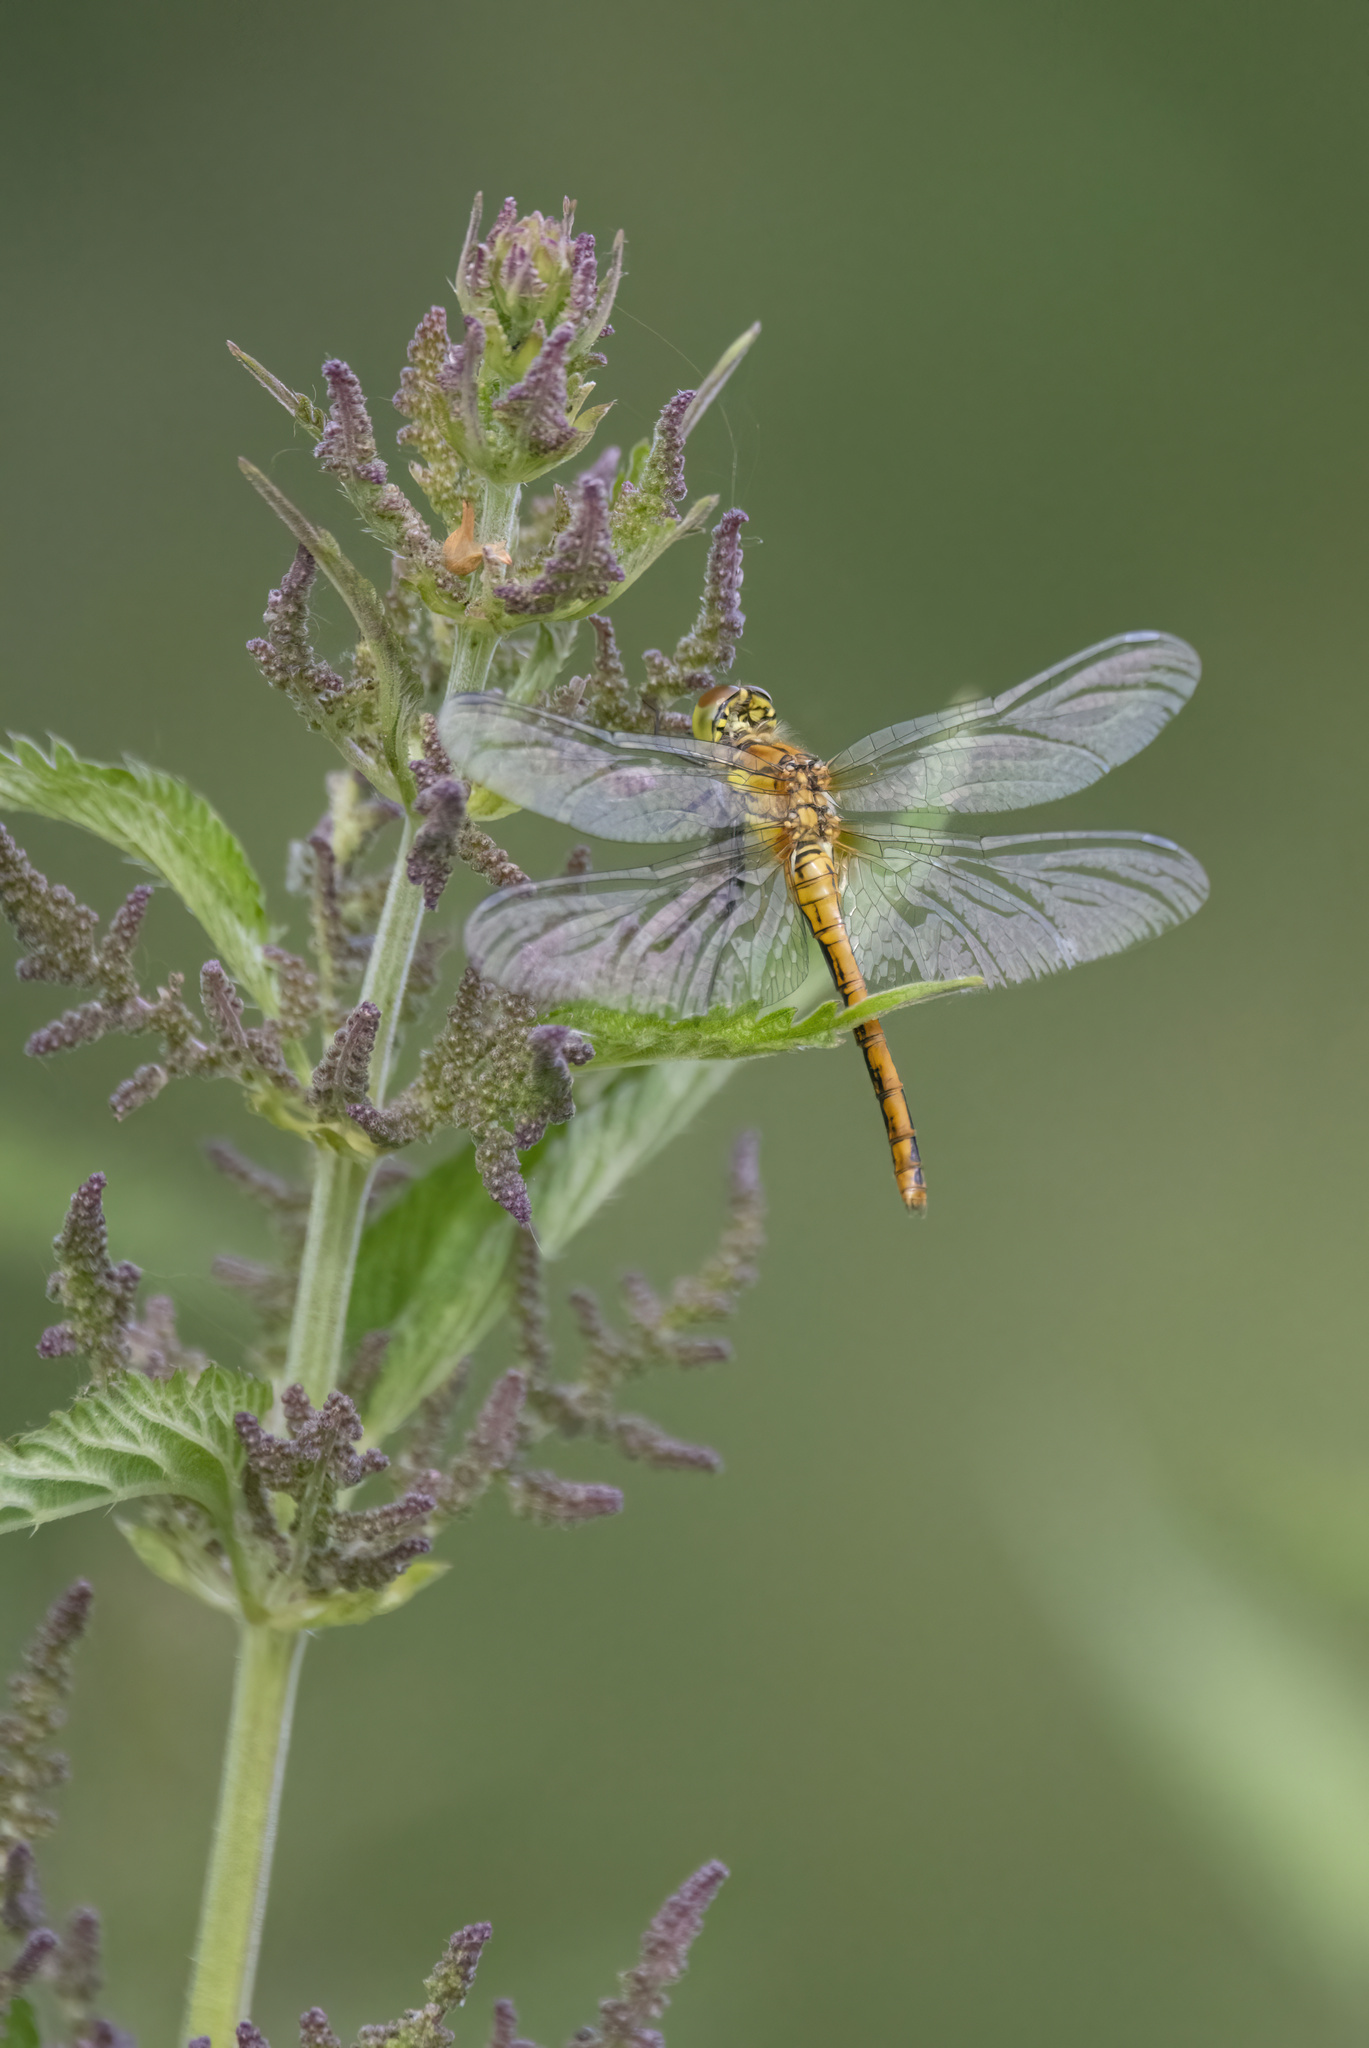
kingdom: Animalia
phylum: Arthropoda
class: Insecta
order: Odonata
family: Libellulidae
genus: Sympetrum
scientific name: Sympetrum sanguineum
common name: Ruddy darter
